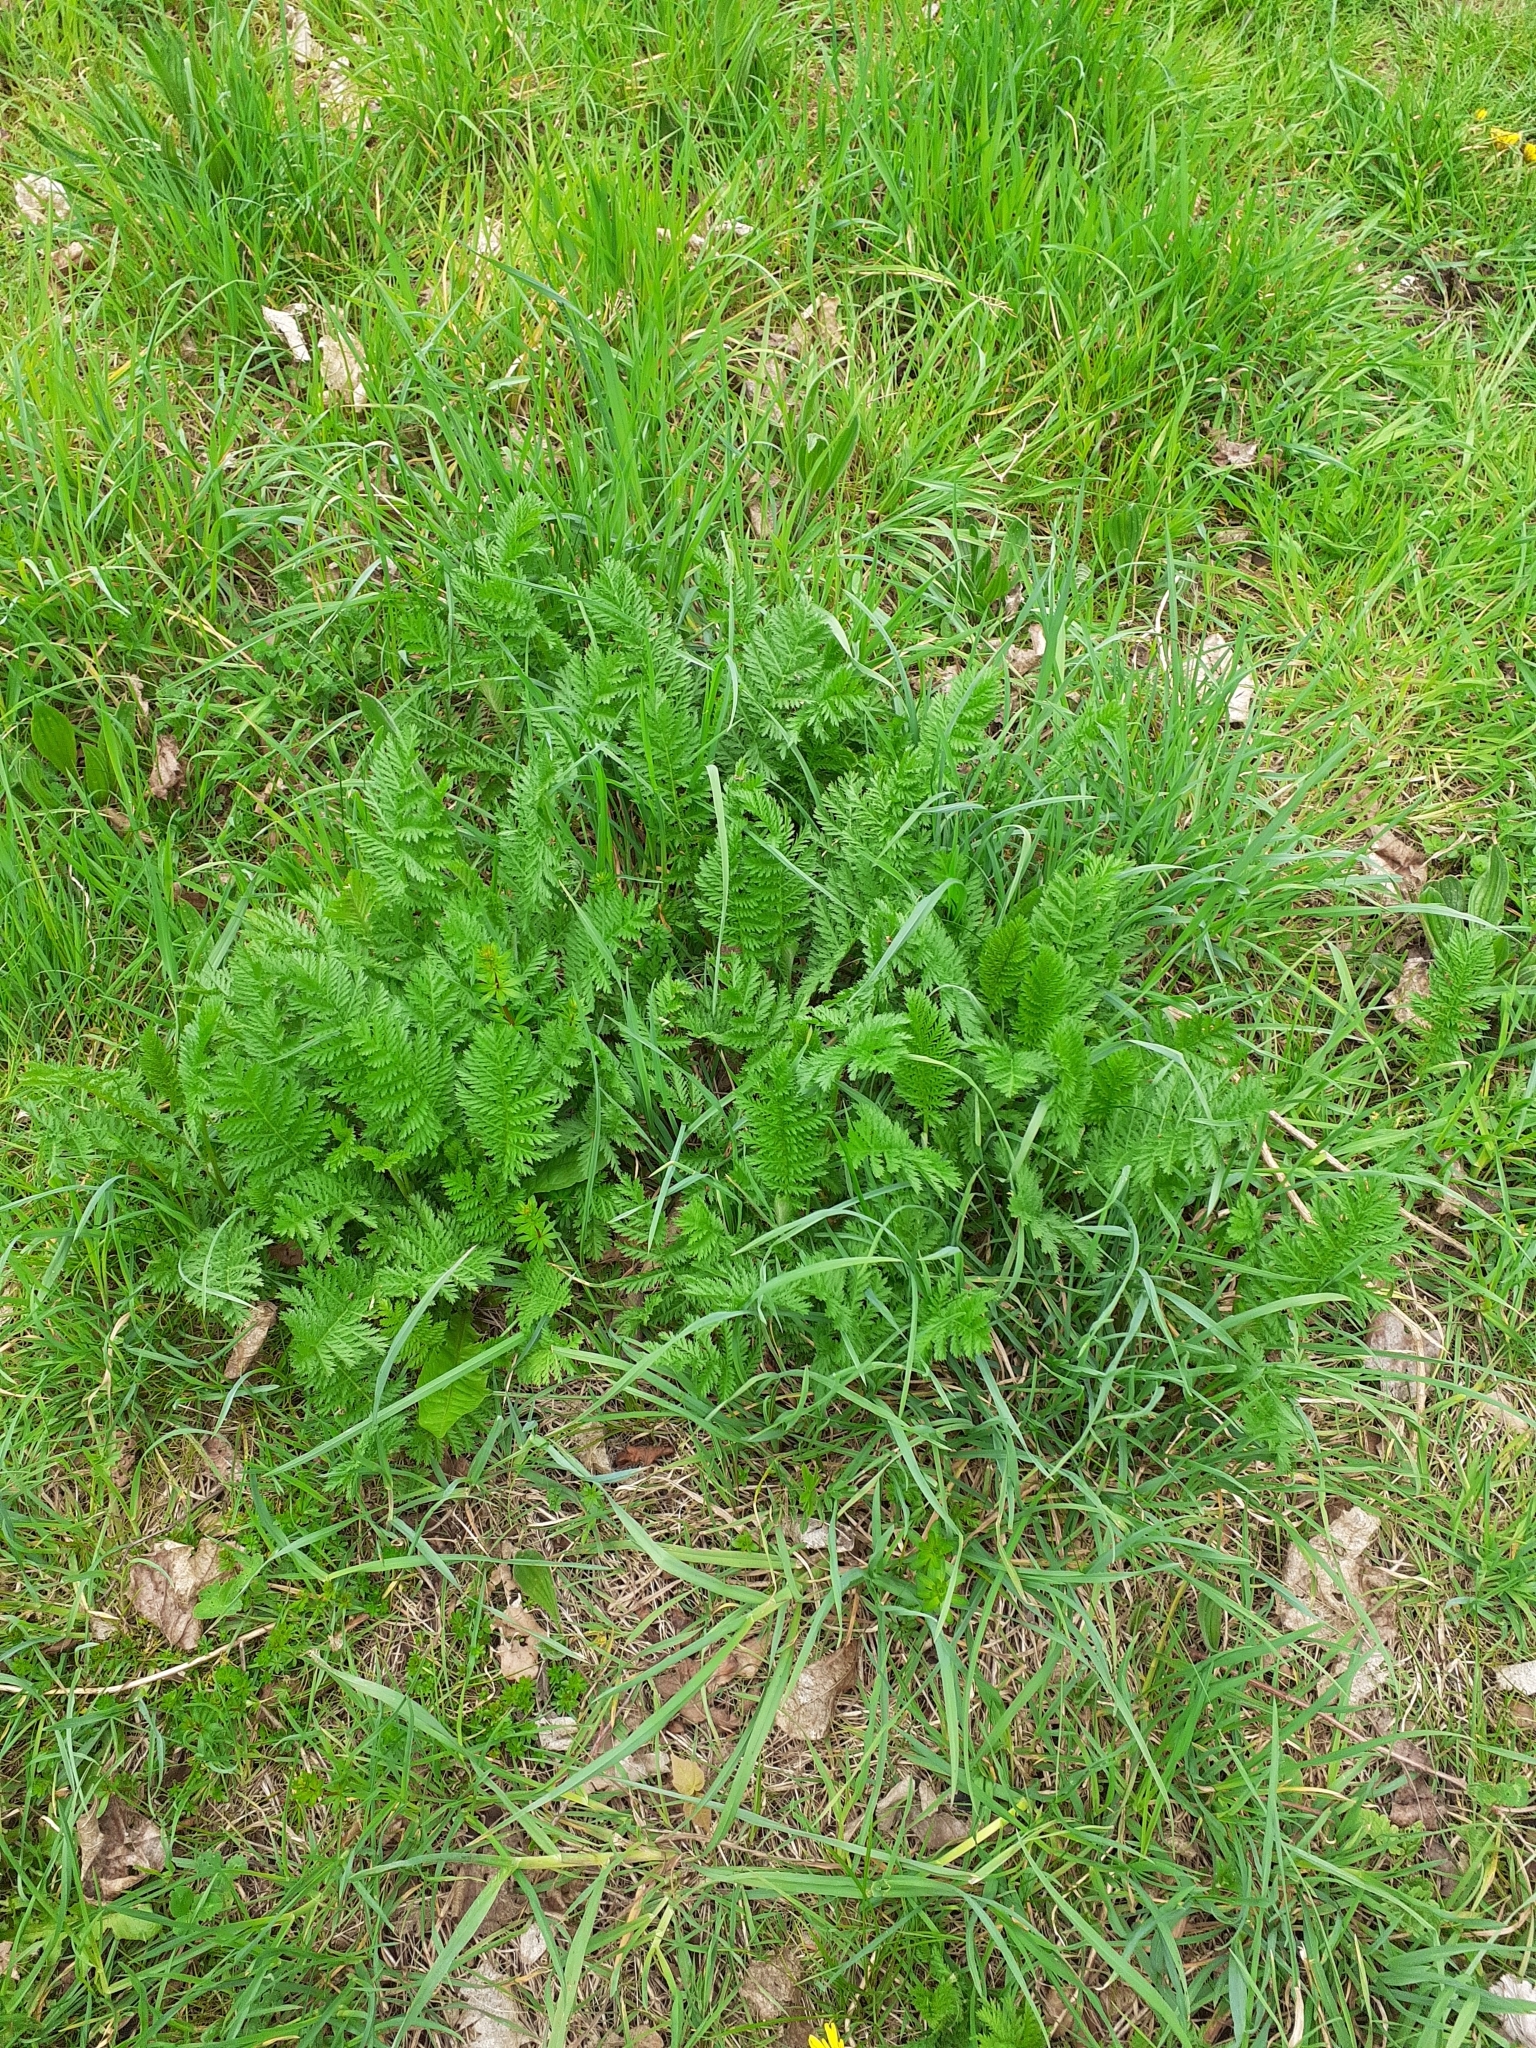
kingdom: Plantae
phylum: Tracheophyta
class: Magnoliopsida
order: Asterales
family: Asteraceae
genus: Tanacetum
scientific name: Tanacetum vulgare
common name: Common tansy
